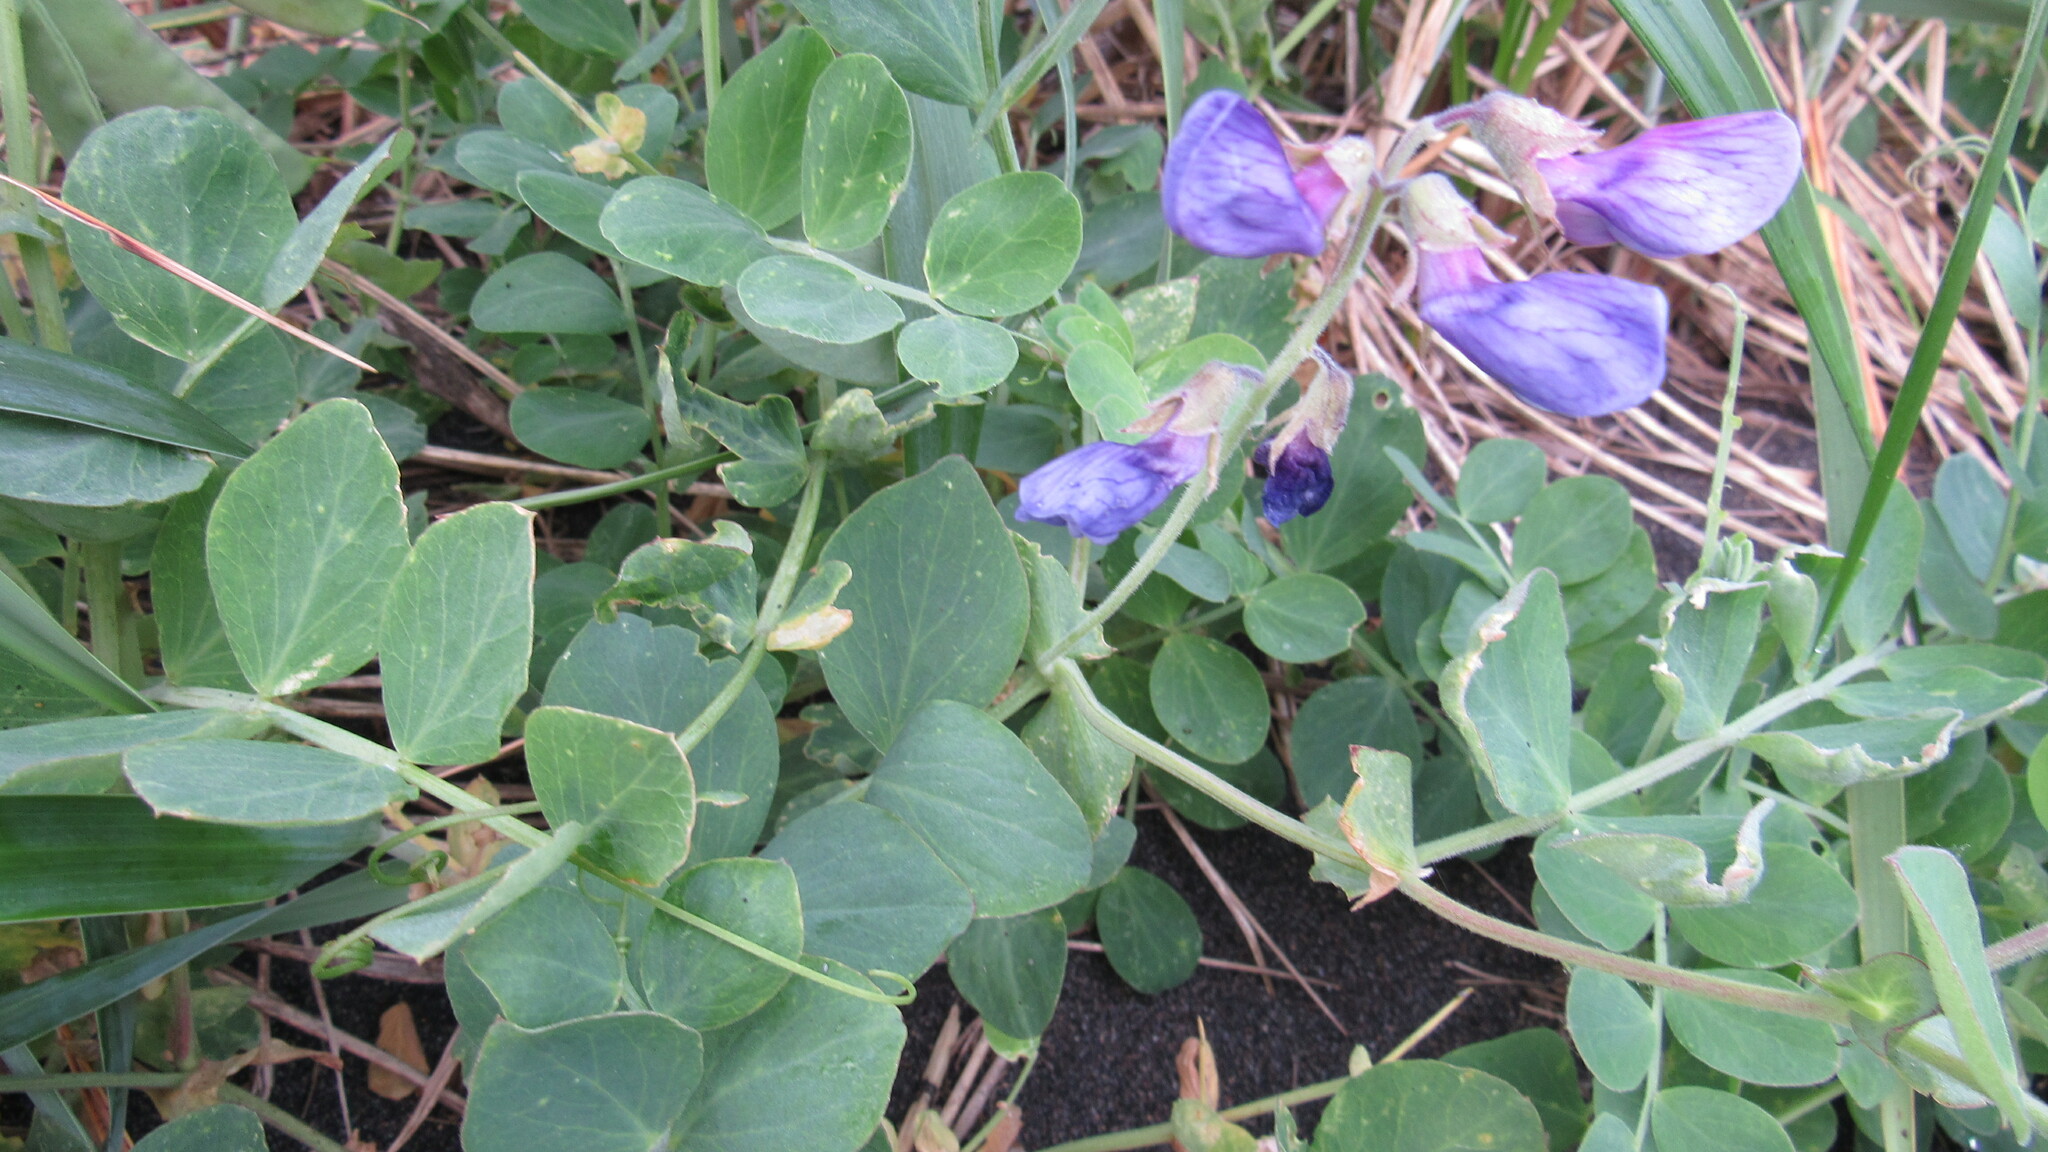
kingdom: Plantae
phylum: Tracheophyta
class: Magnoliopsida
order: Fabales
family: Fabaceae
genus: Lathyrus
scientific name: Lathyrus japonicus
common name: Sea pea
